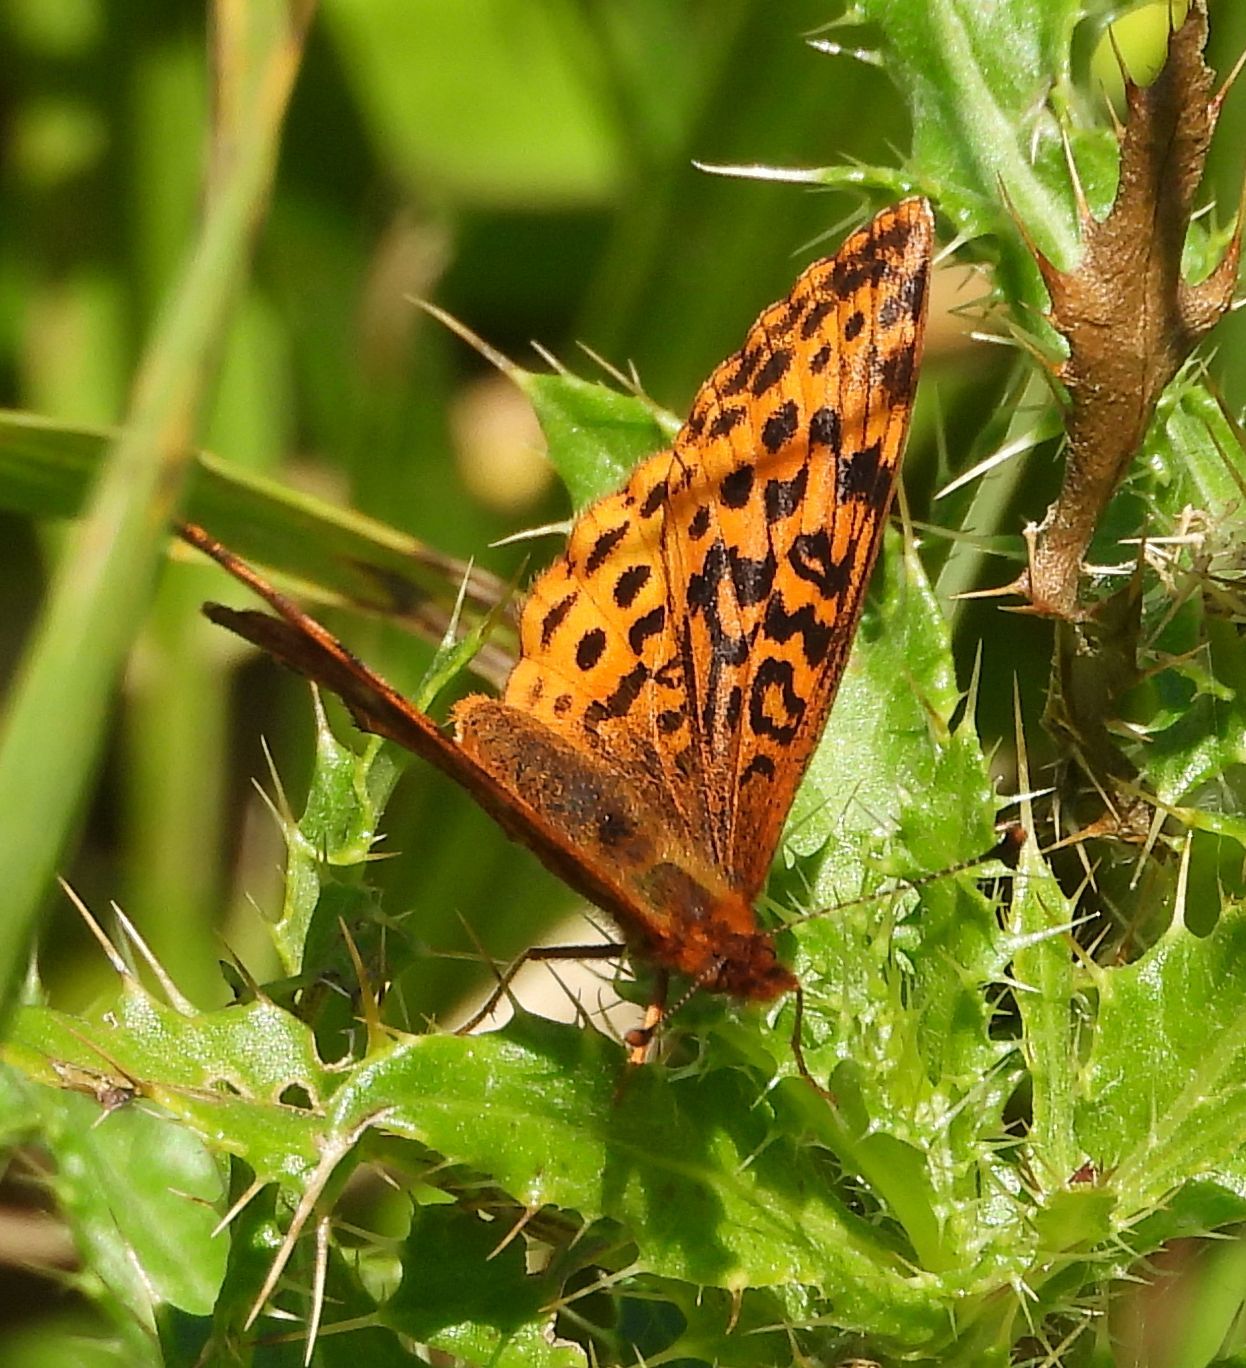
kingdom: Animalia
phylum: Arthropoda
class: Insecta
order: Lepidoptera
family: Nymphalidae
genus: Clossiana
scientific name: Clossiana toddi
